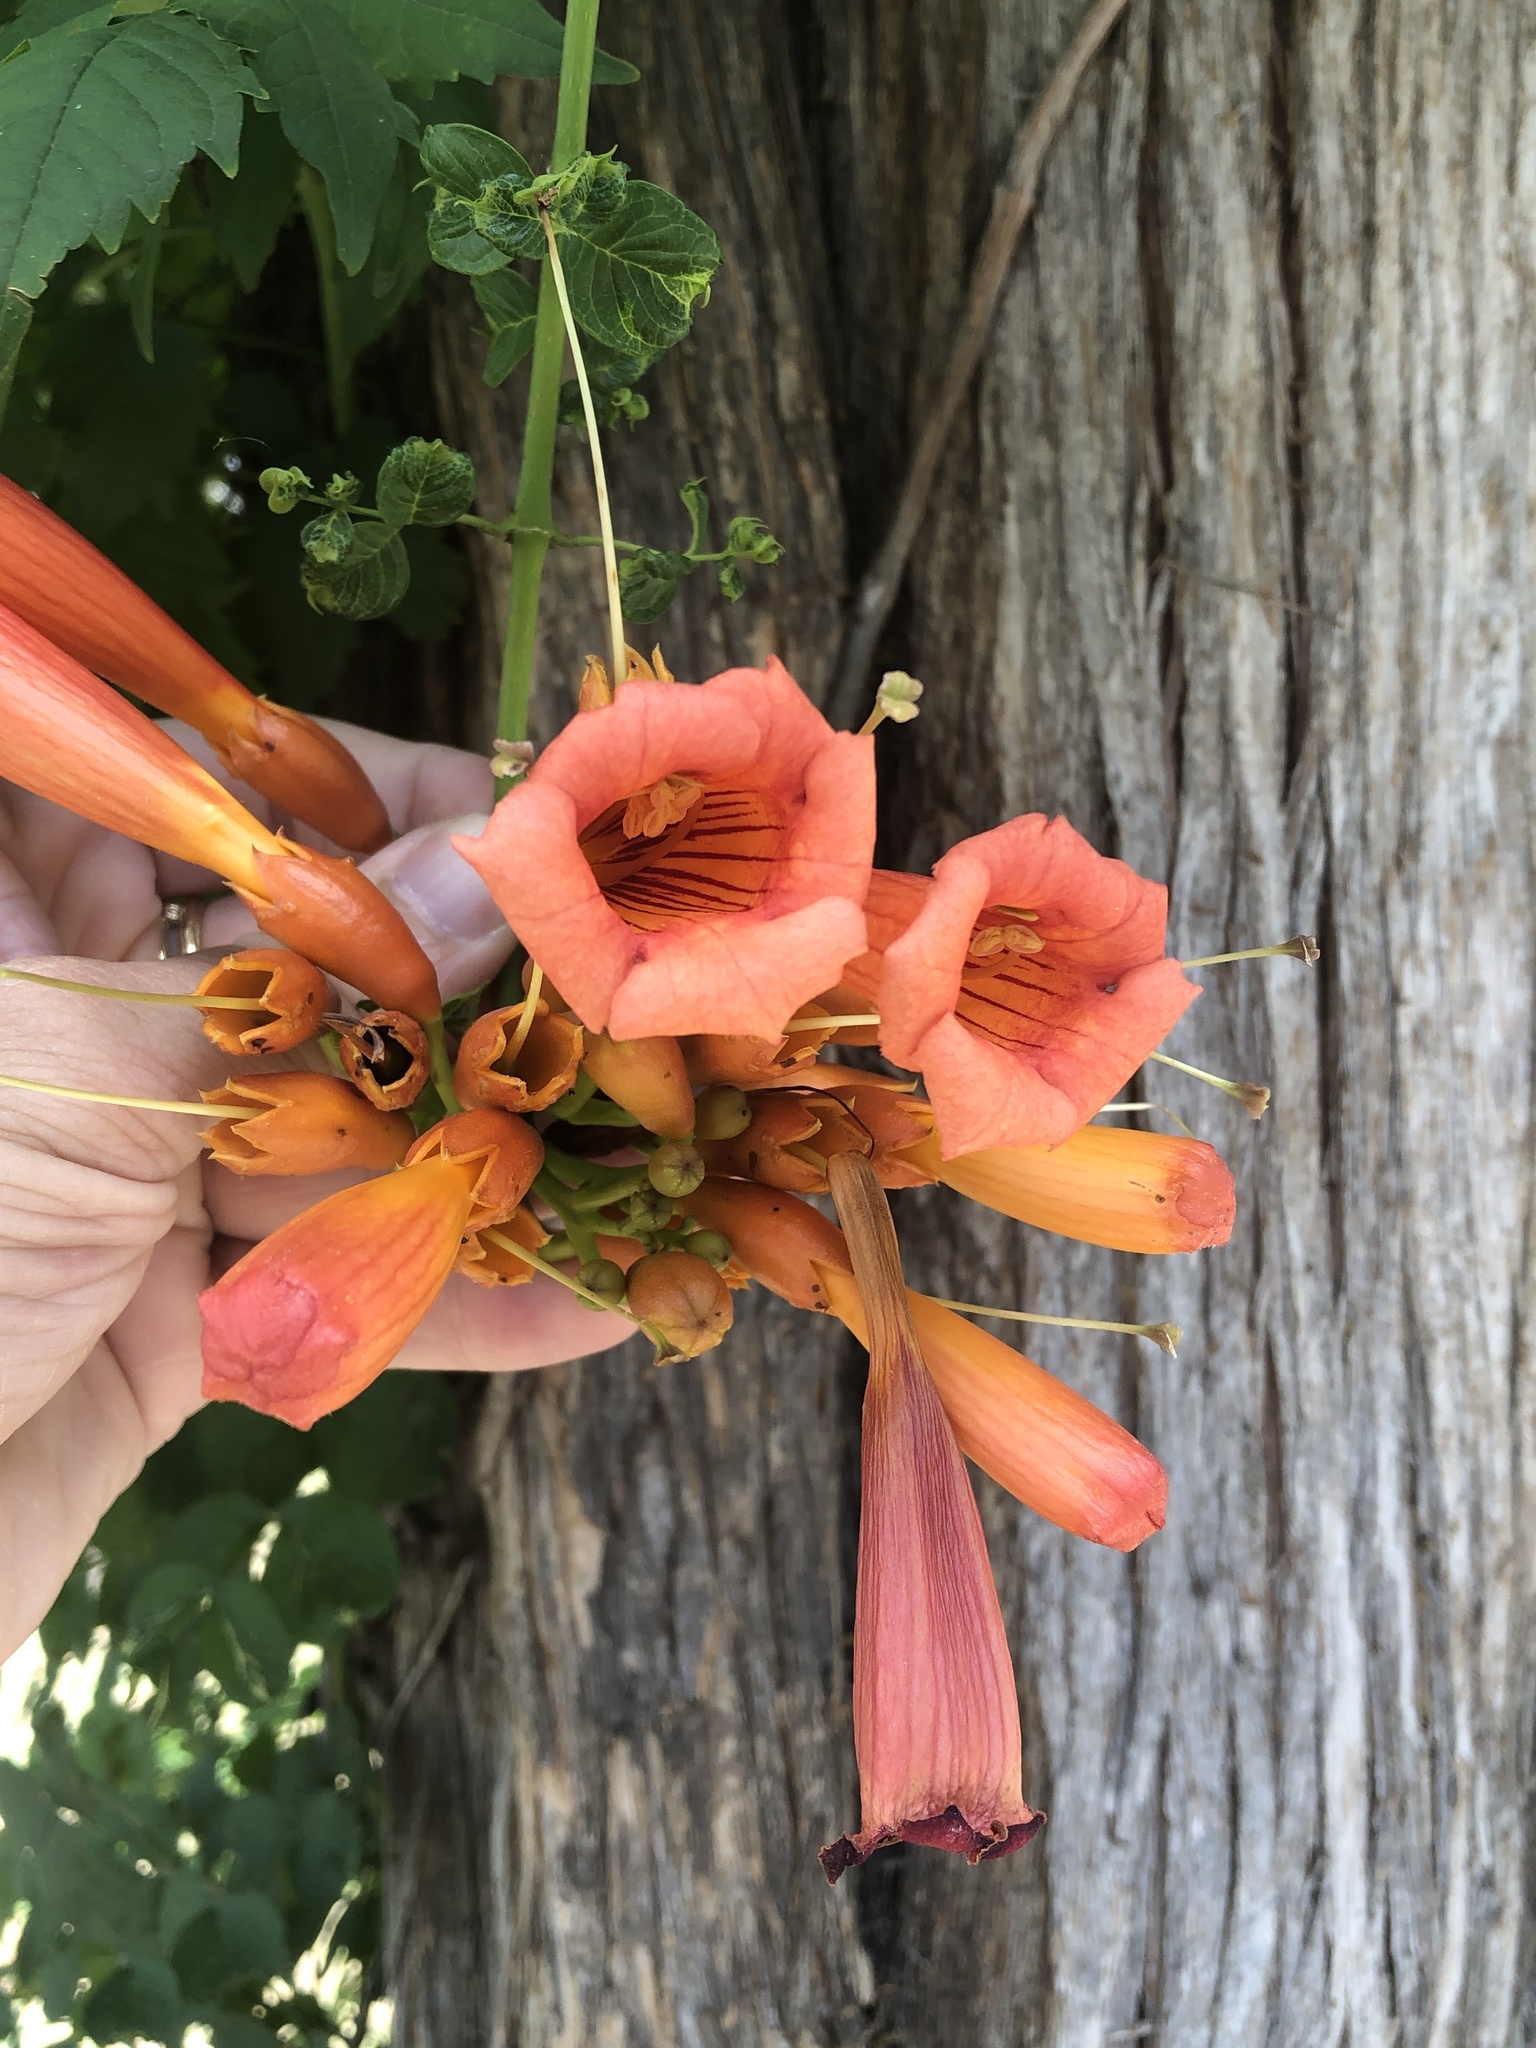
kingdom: Plantae
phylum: Tracheophyta
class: Magnoliopsida
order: Lamiales
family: Bignoniaceae
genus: Campsis
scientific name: Campsis radicans
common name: Trumpet-creeper
